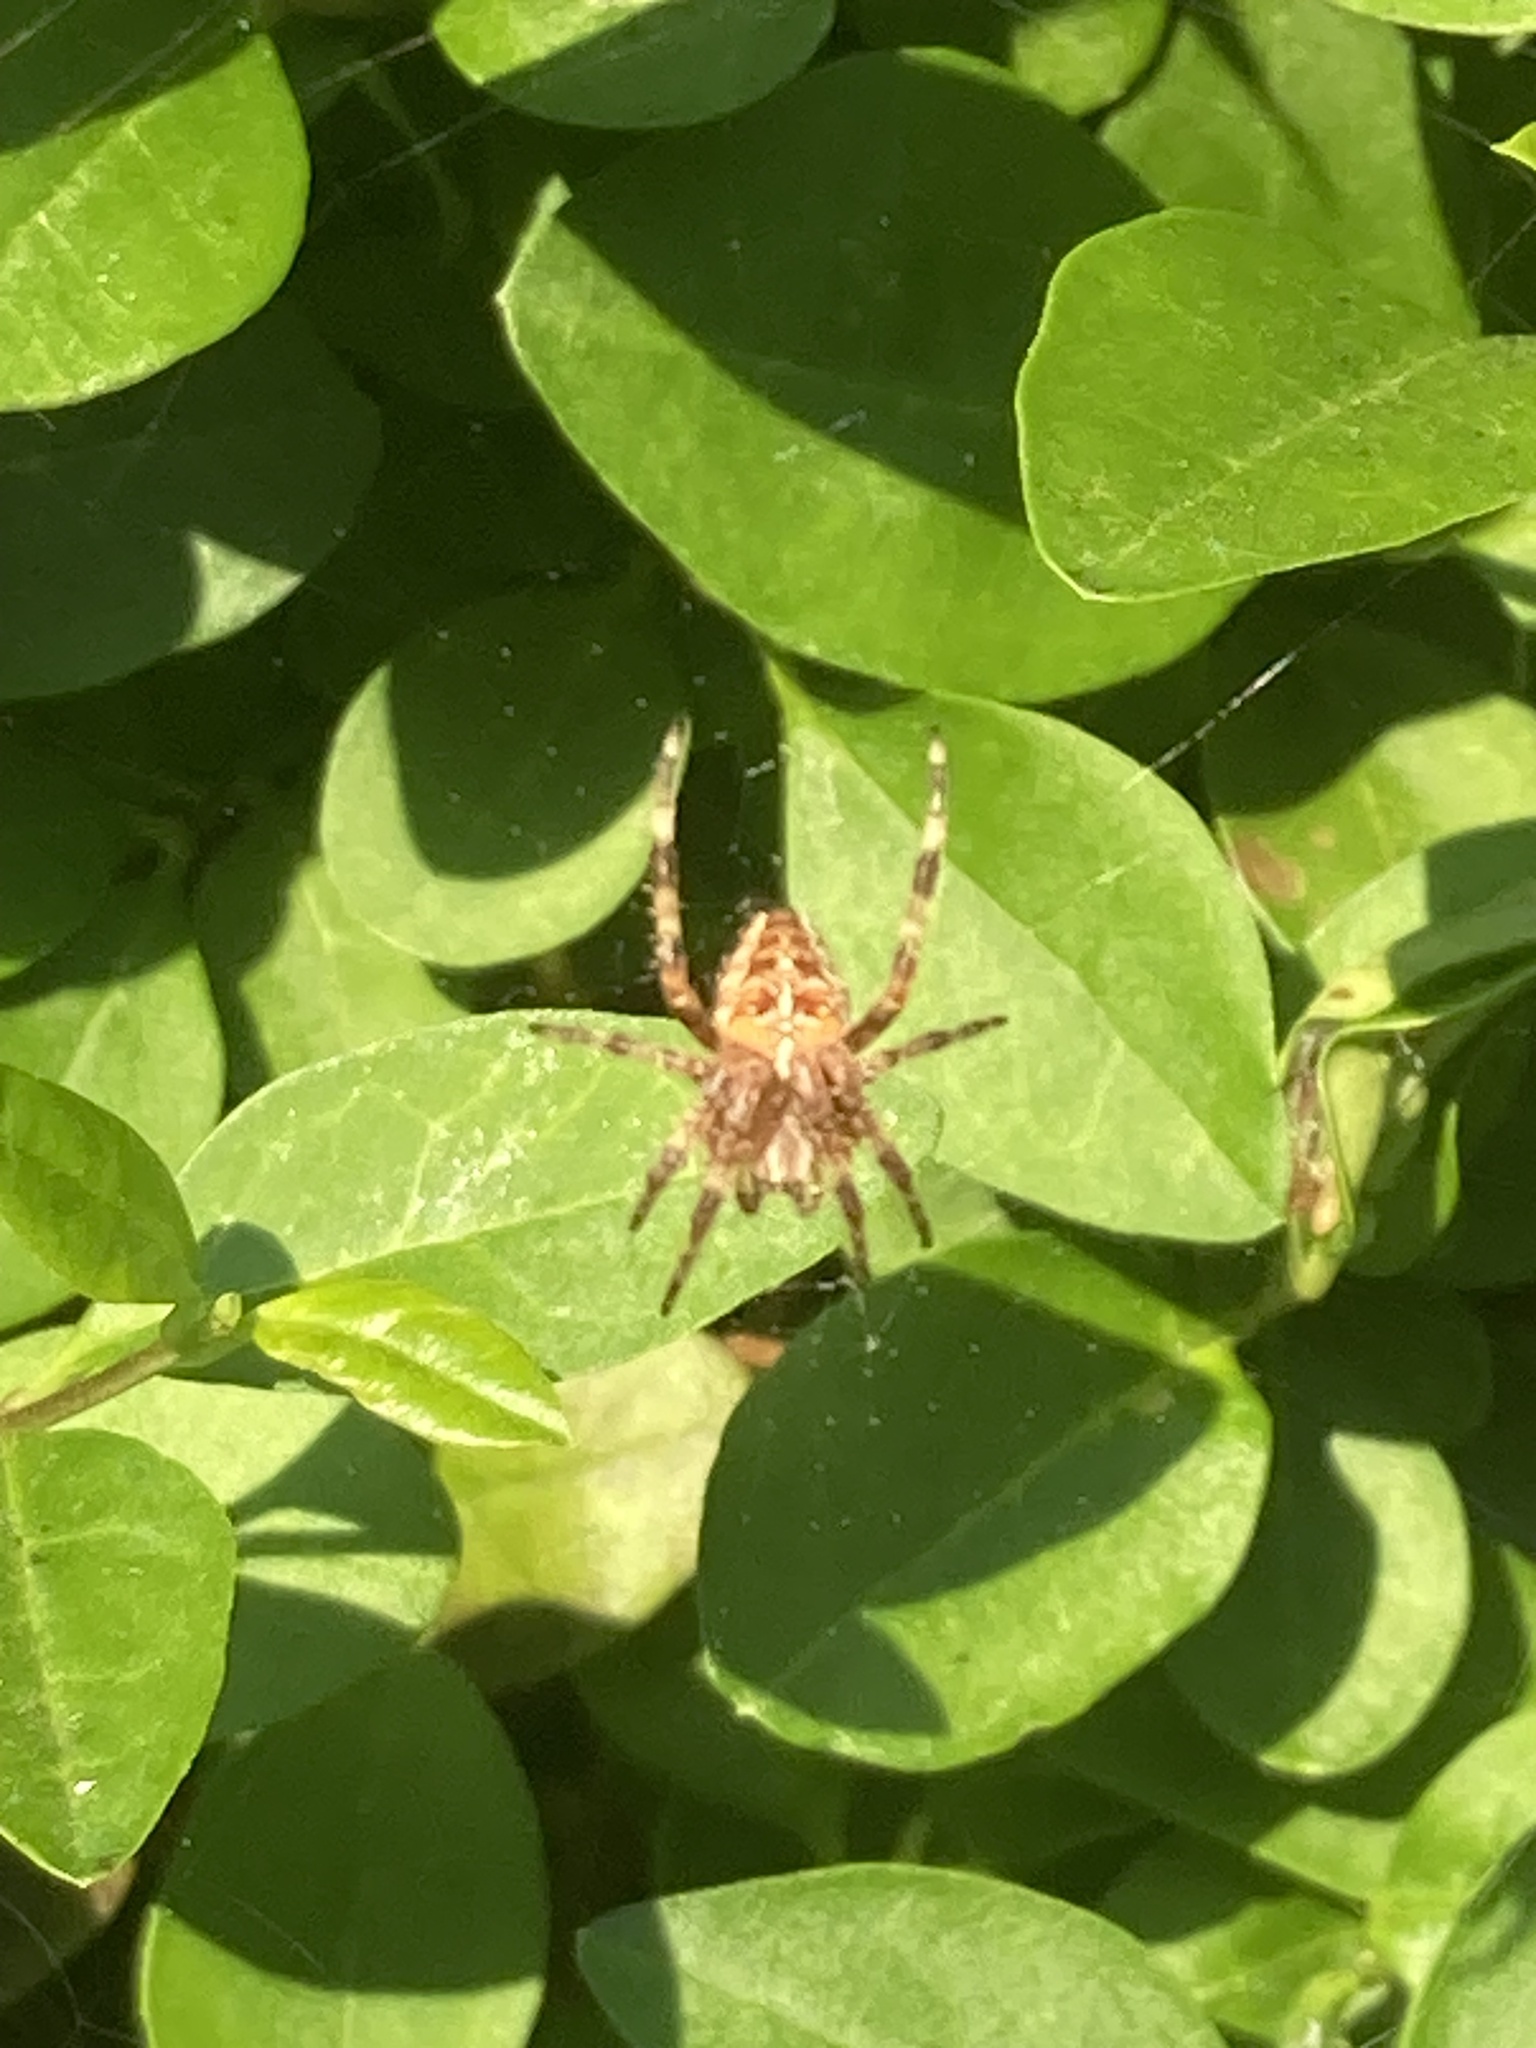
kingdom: Animalia
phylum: Arthropoda
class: Arachnida
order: Araneae
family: Araneidae
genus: Araneus
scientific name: Araneus diadematus
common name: Cross orbweaver
